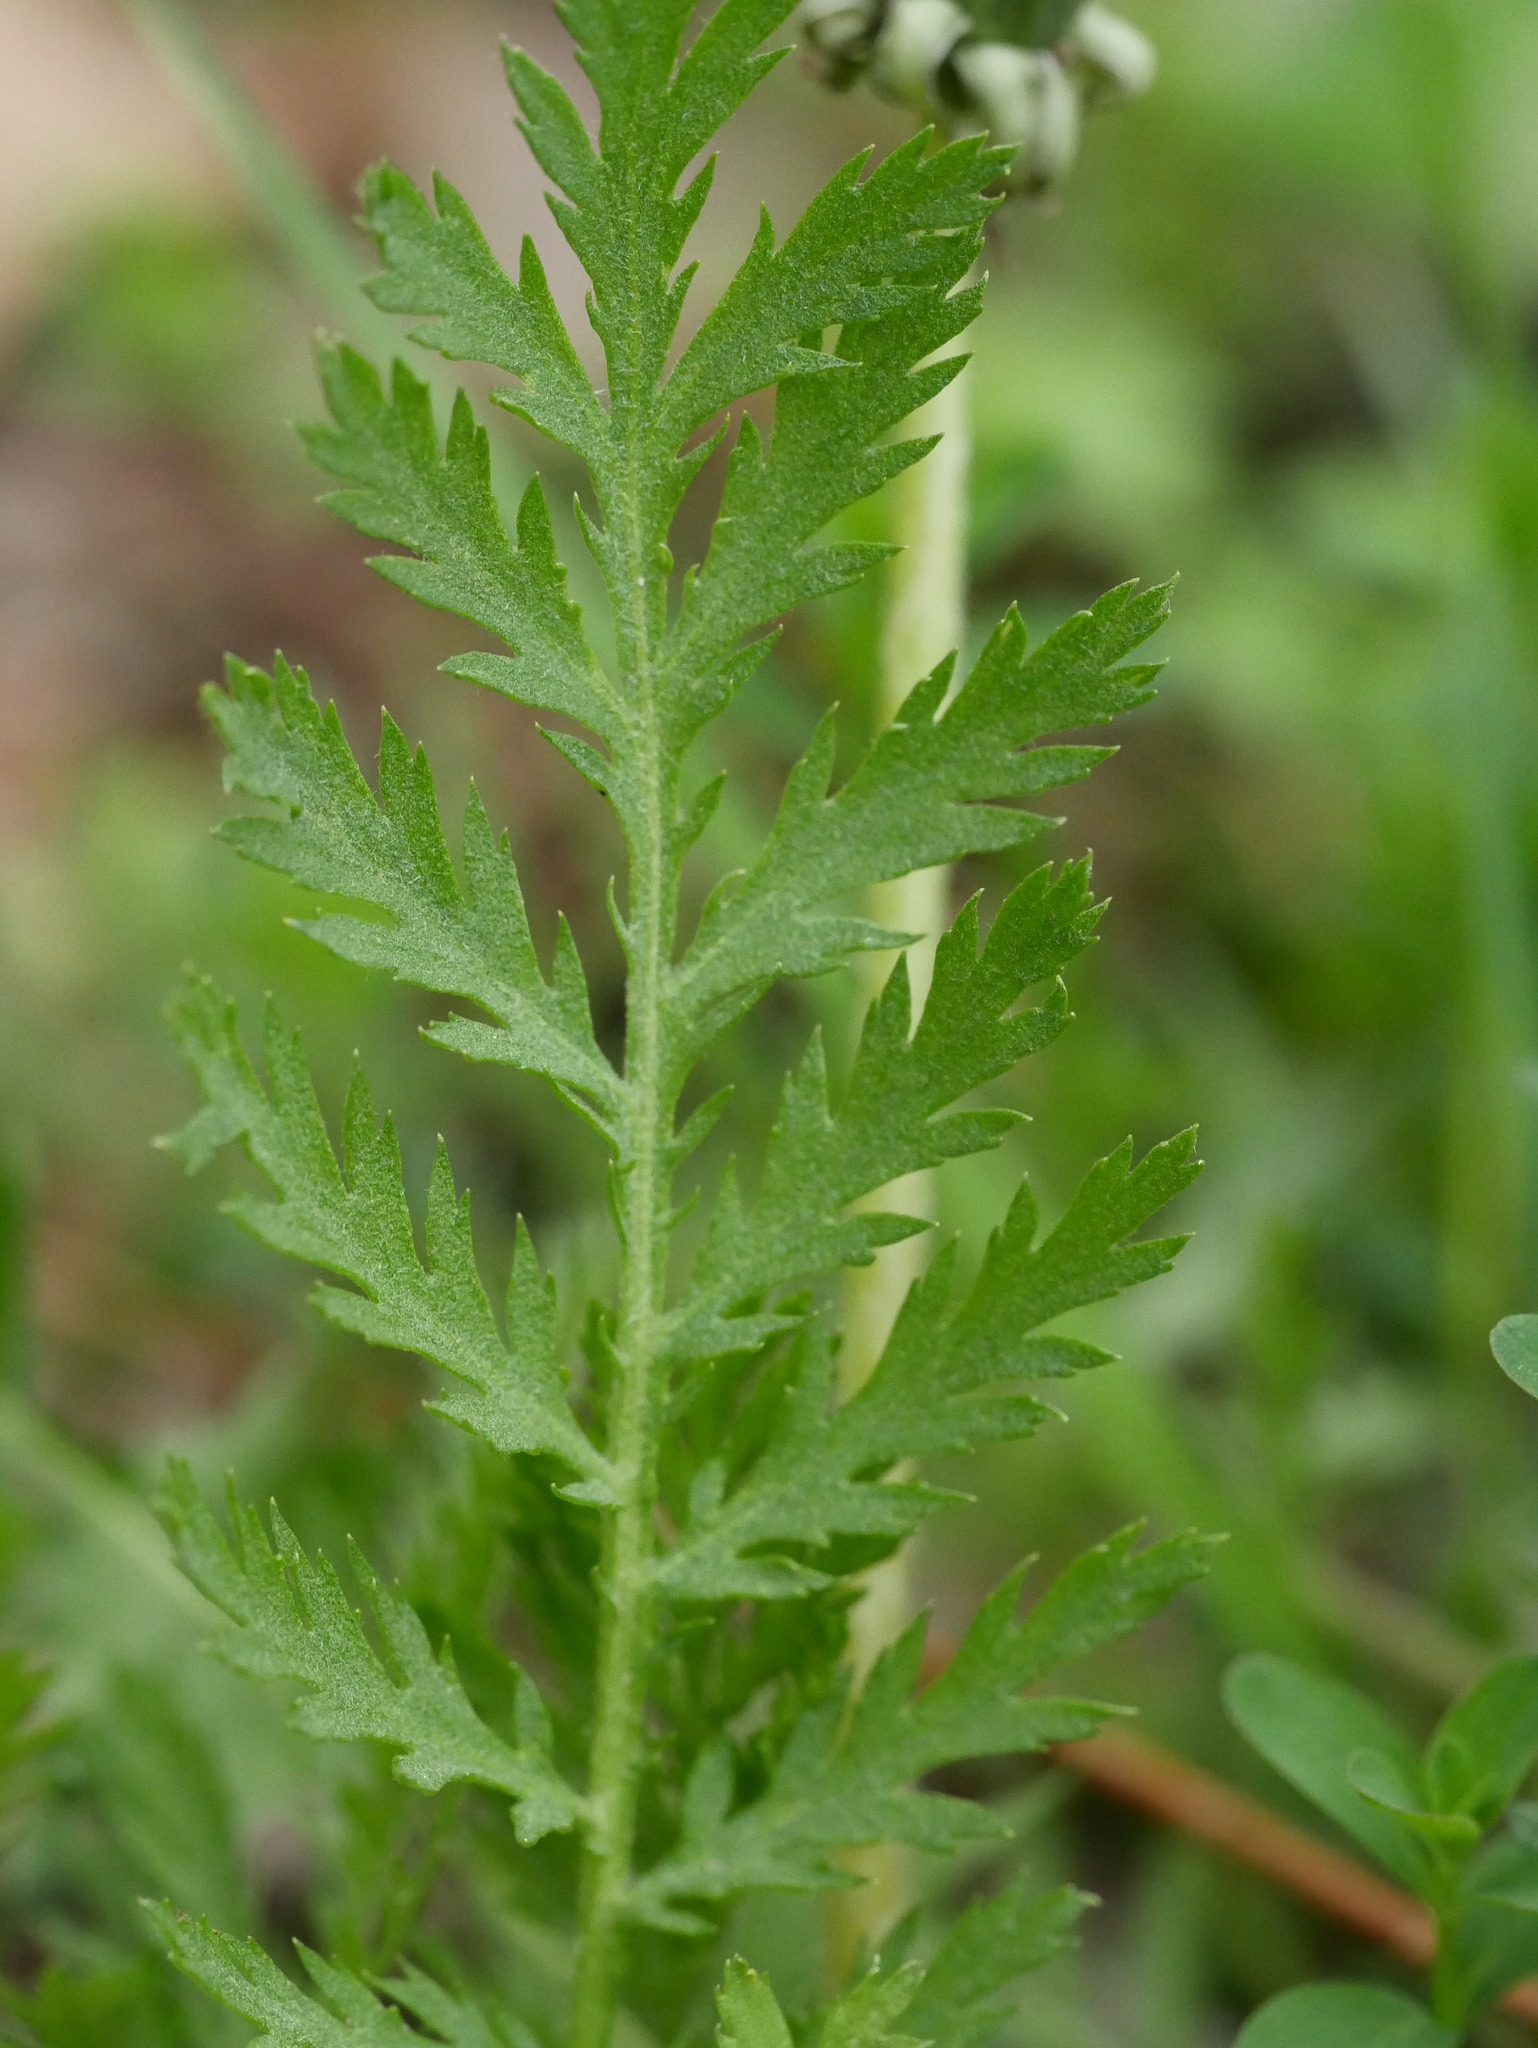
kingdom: Plantae
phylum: Tracheophyta
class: Magnoliopsida
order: Asterales
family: Asteraceae
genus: Tanacetum
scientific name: Tanacetum vulgare
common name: Common tansy
